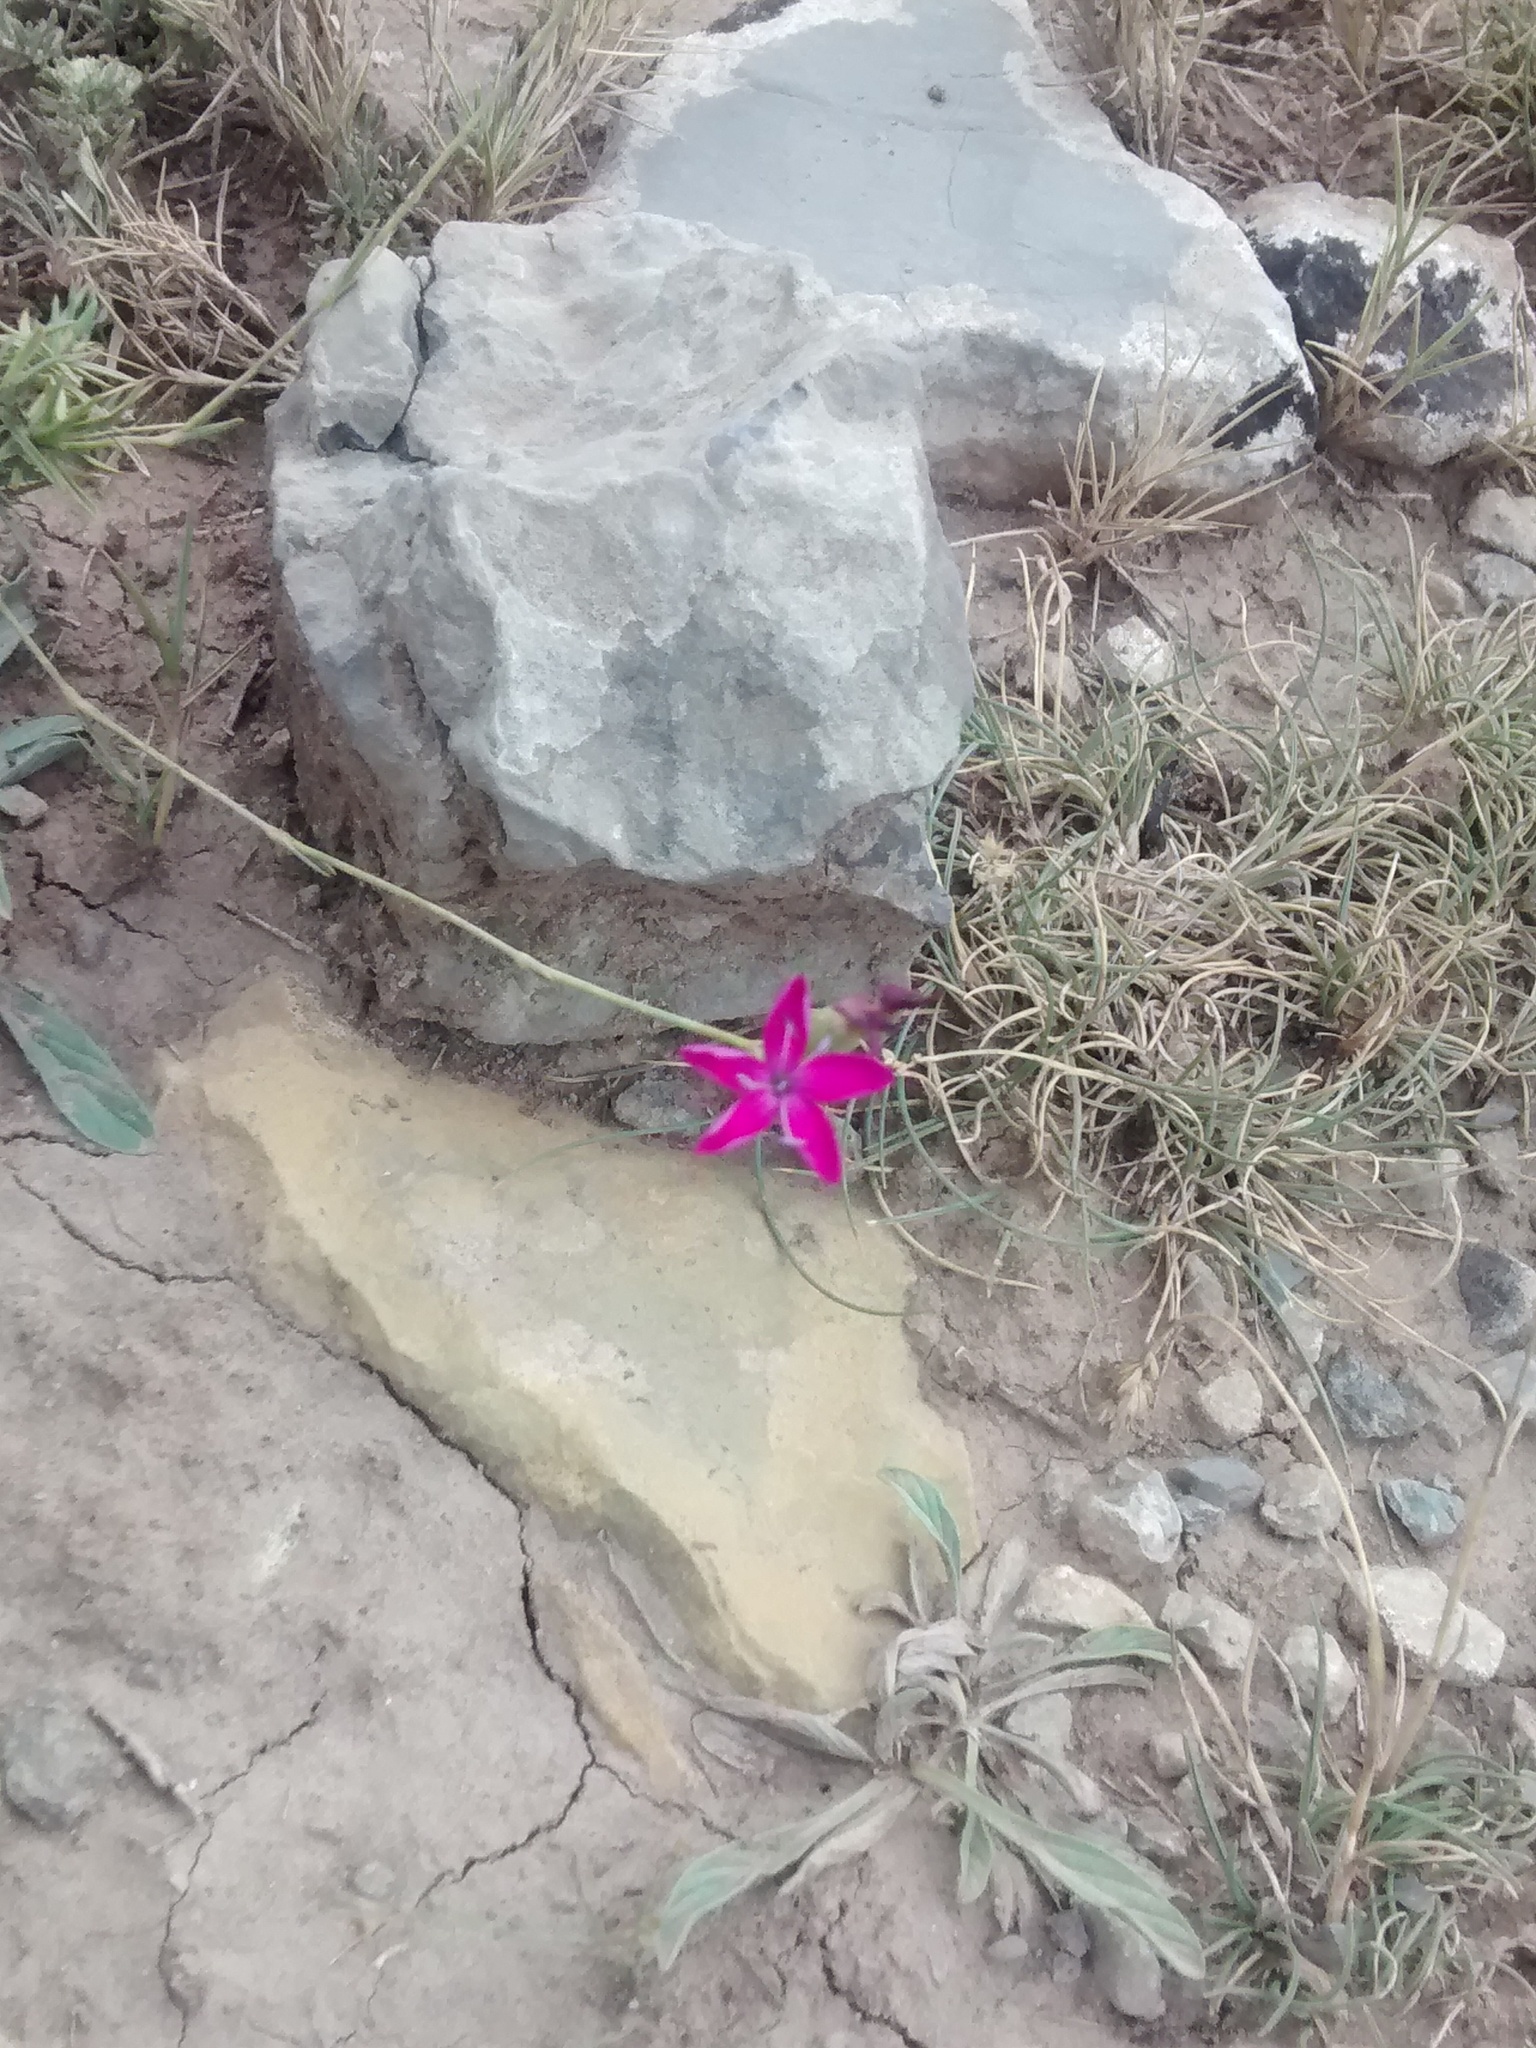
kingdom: Plantae
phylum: Tracheophyta
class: Magnoliopsida
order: Caryophyllales
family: Caryophyllaceae
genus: Dianthus
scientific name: Dianthus algetanus
